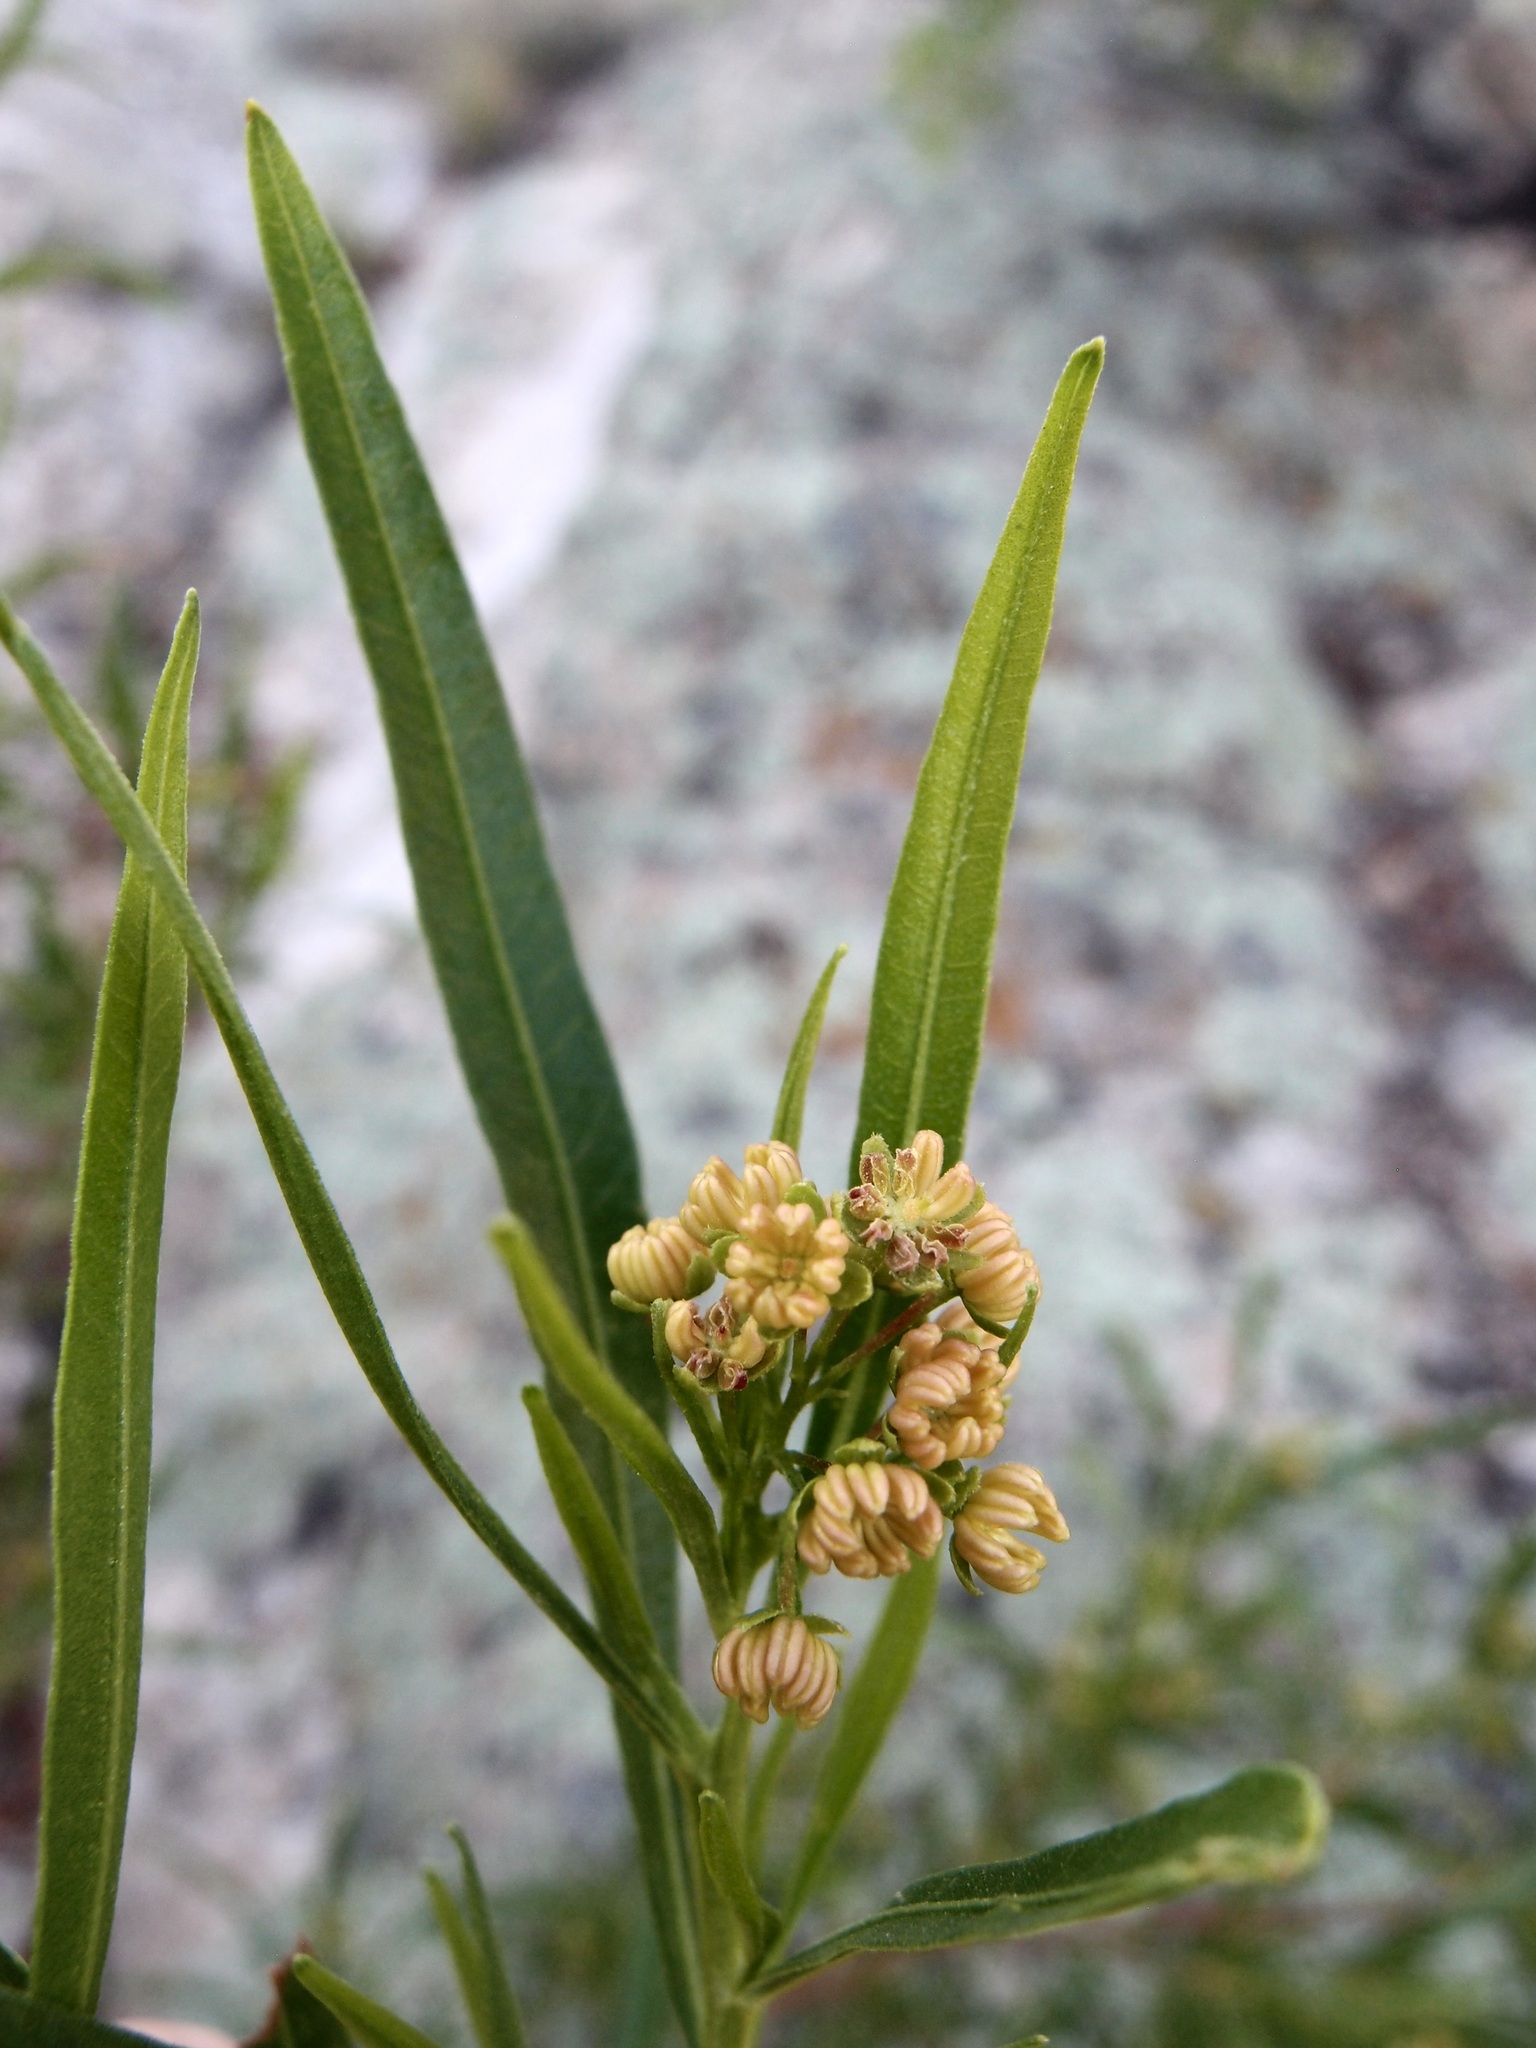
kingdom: Plantae
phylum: Tracheophyta
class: Magnoliopsida
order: Sapindales
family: Sapindaceae
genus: Dodonaea
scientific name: Dodonaea viscosa
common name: Hopbush
